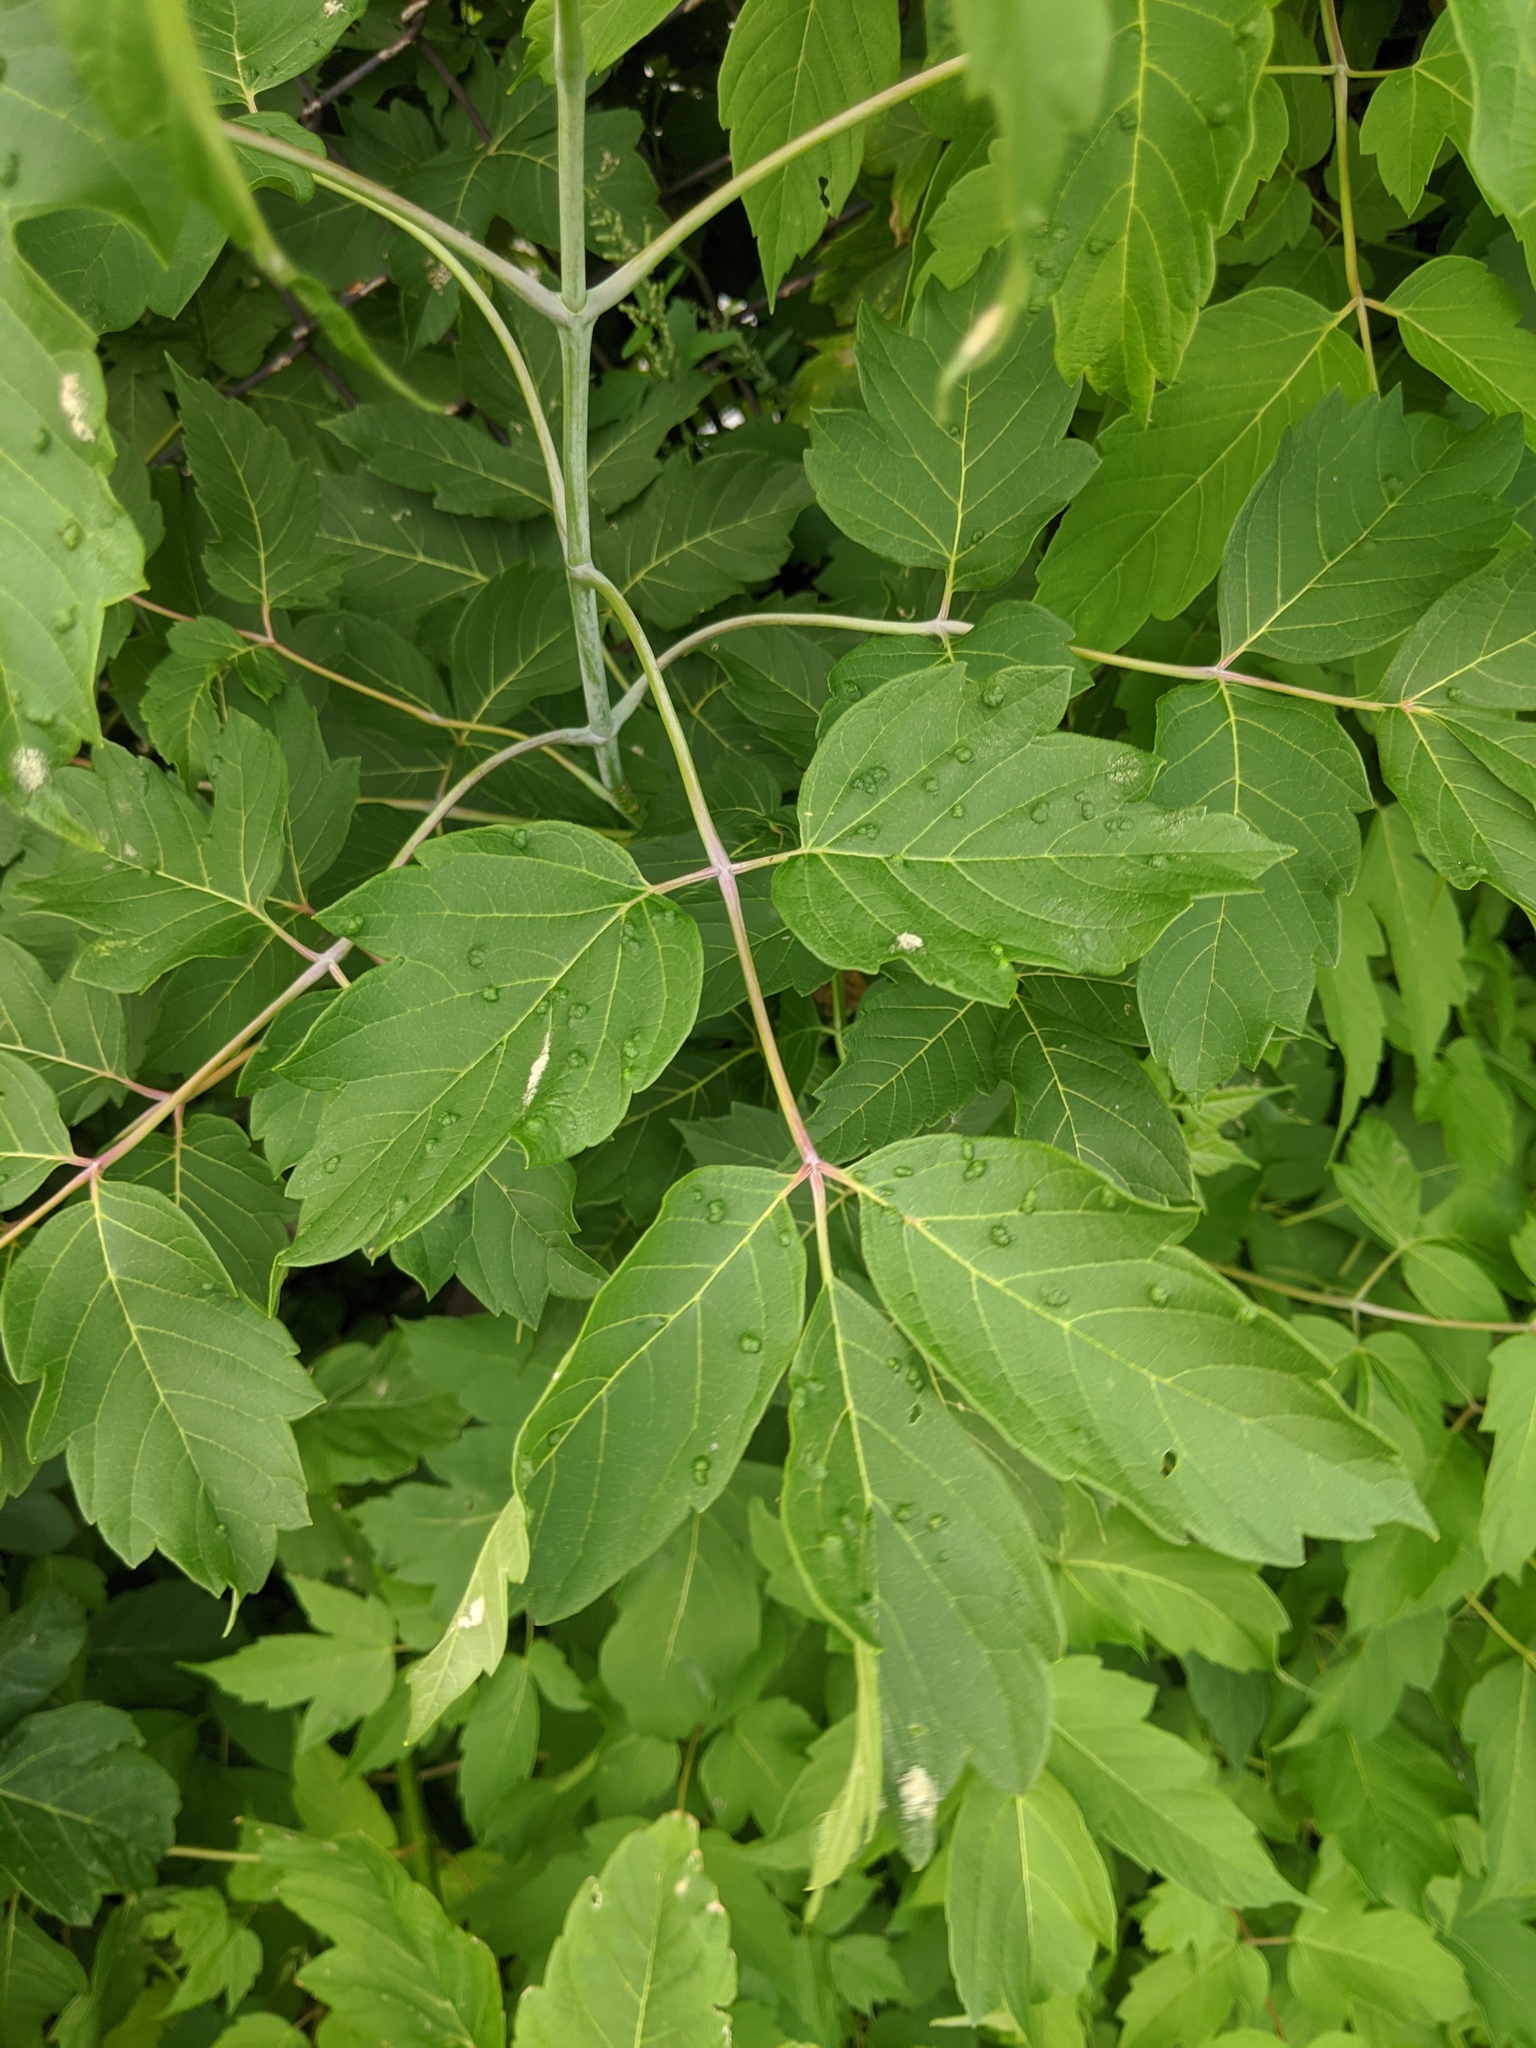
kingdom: Animalia
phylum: Arthropoda
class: Arachnida
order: Trombidiformes
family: Eriophyidae
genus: Aceria
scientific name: Aceria
